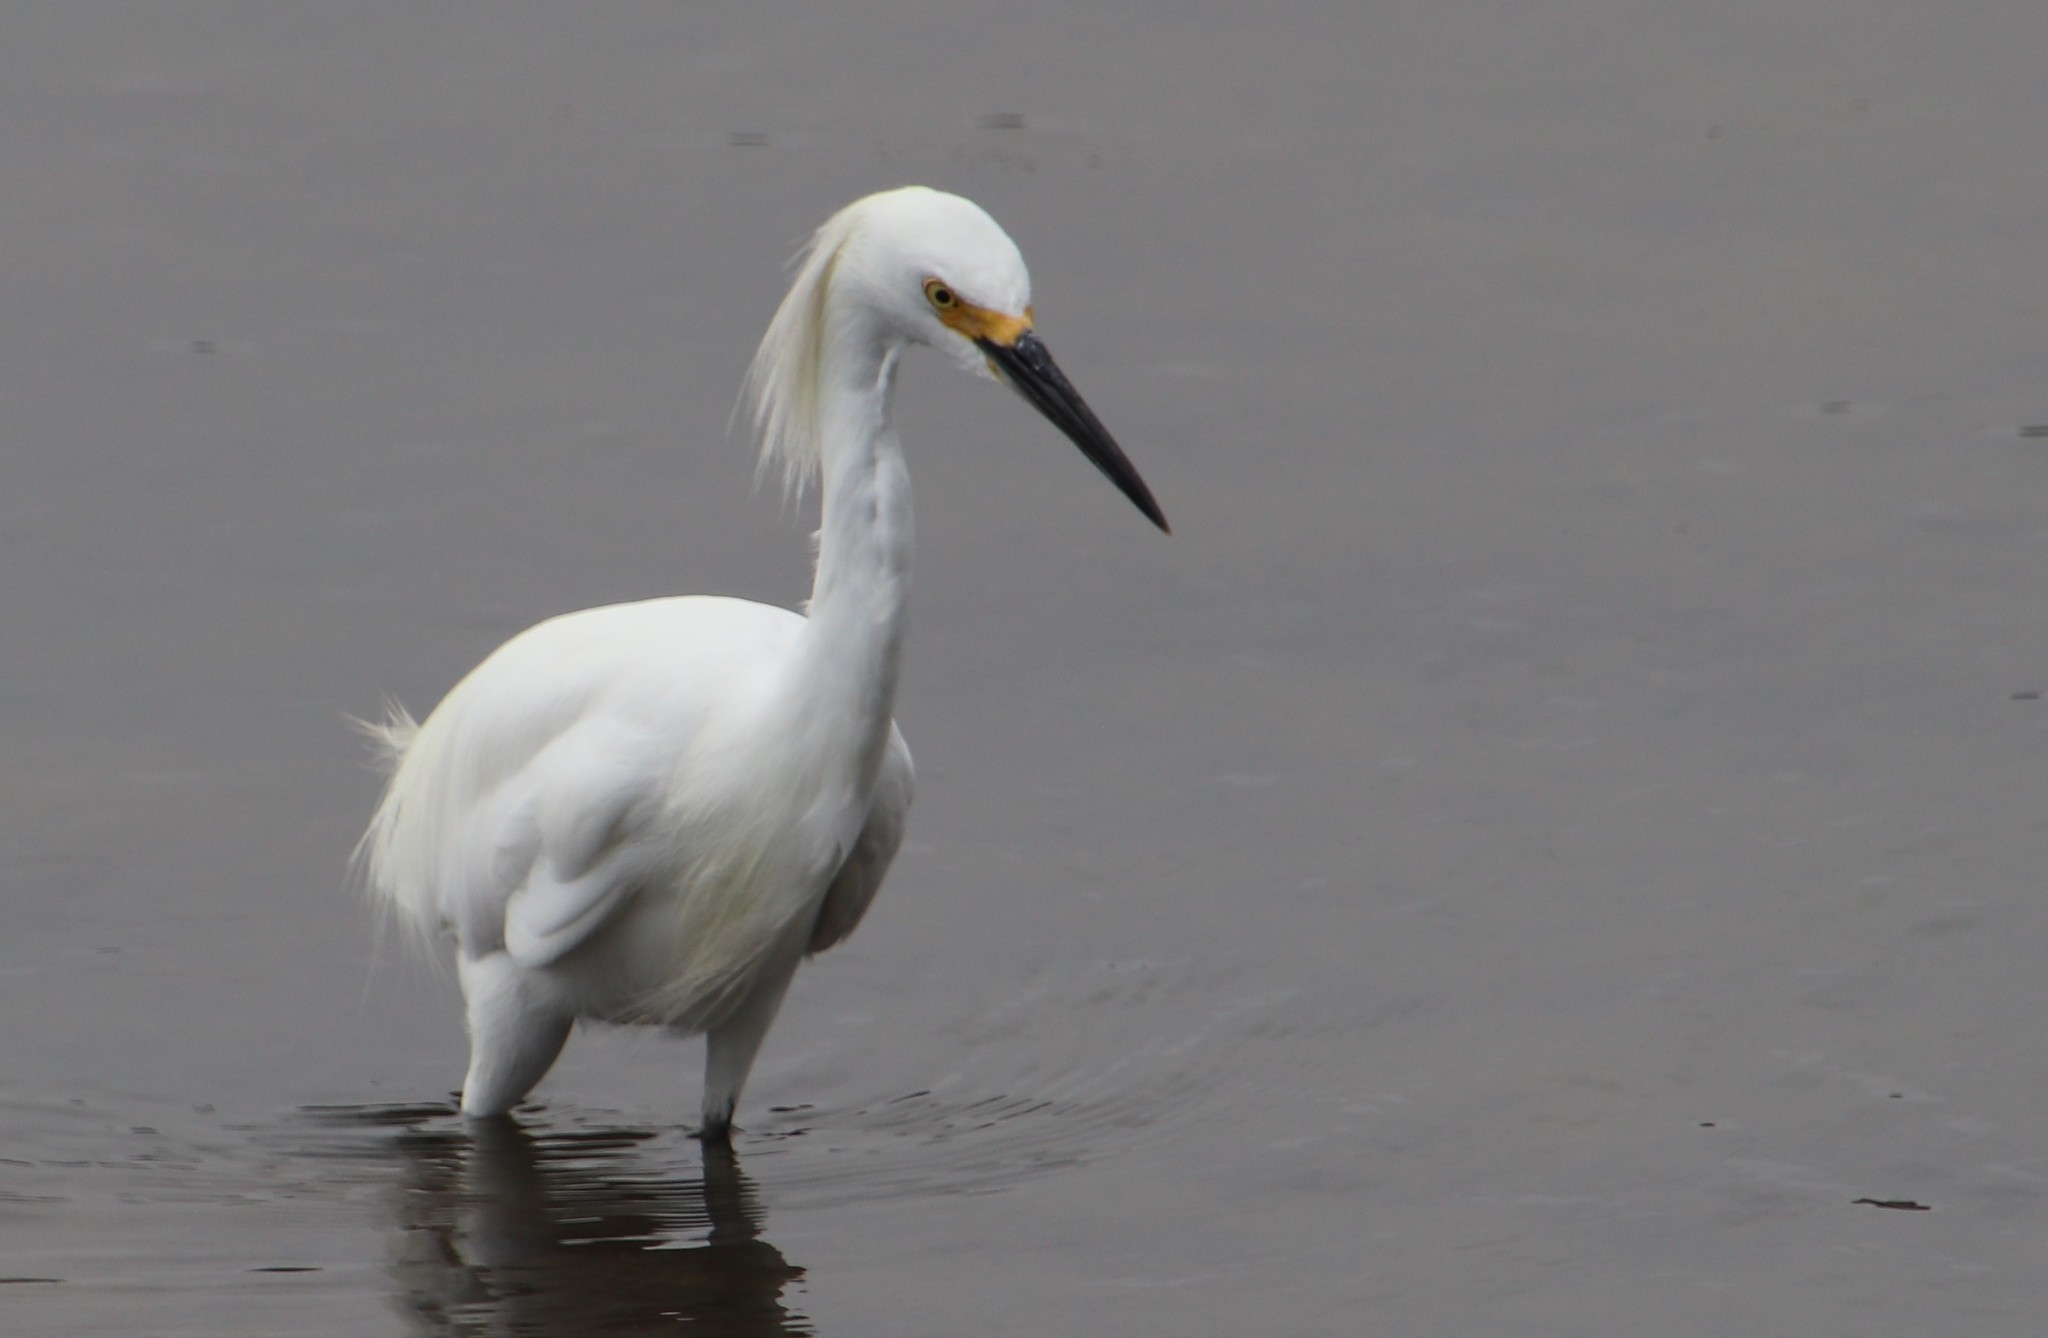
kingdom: Animalia
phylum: Chordata
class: Aves
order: Pelecaniformes
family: Ardeidae
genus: Egretta
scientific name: Egretta thula
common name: Snowy egret
